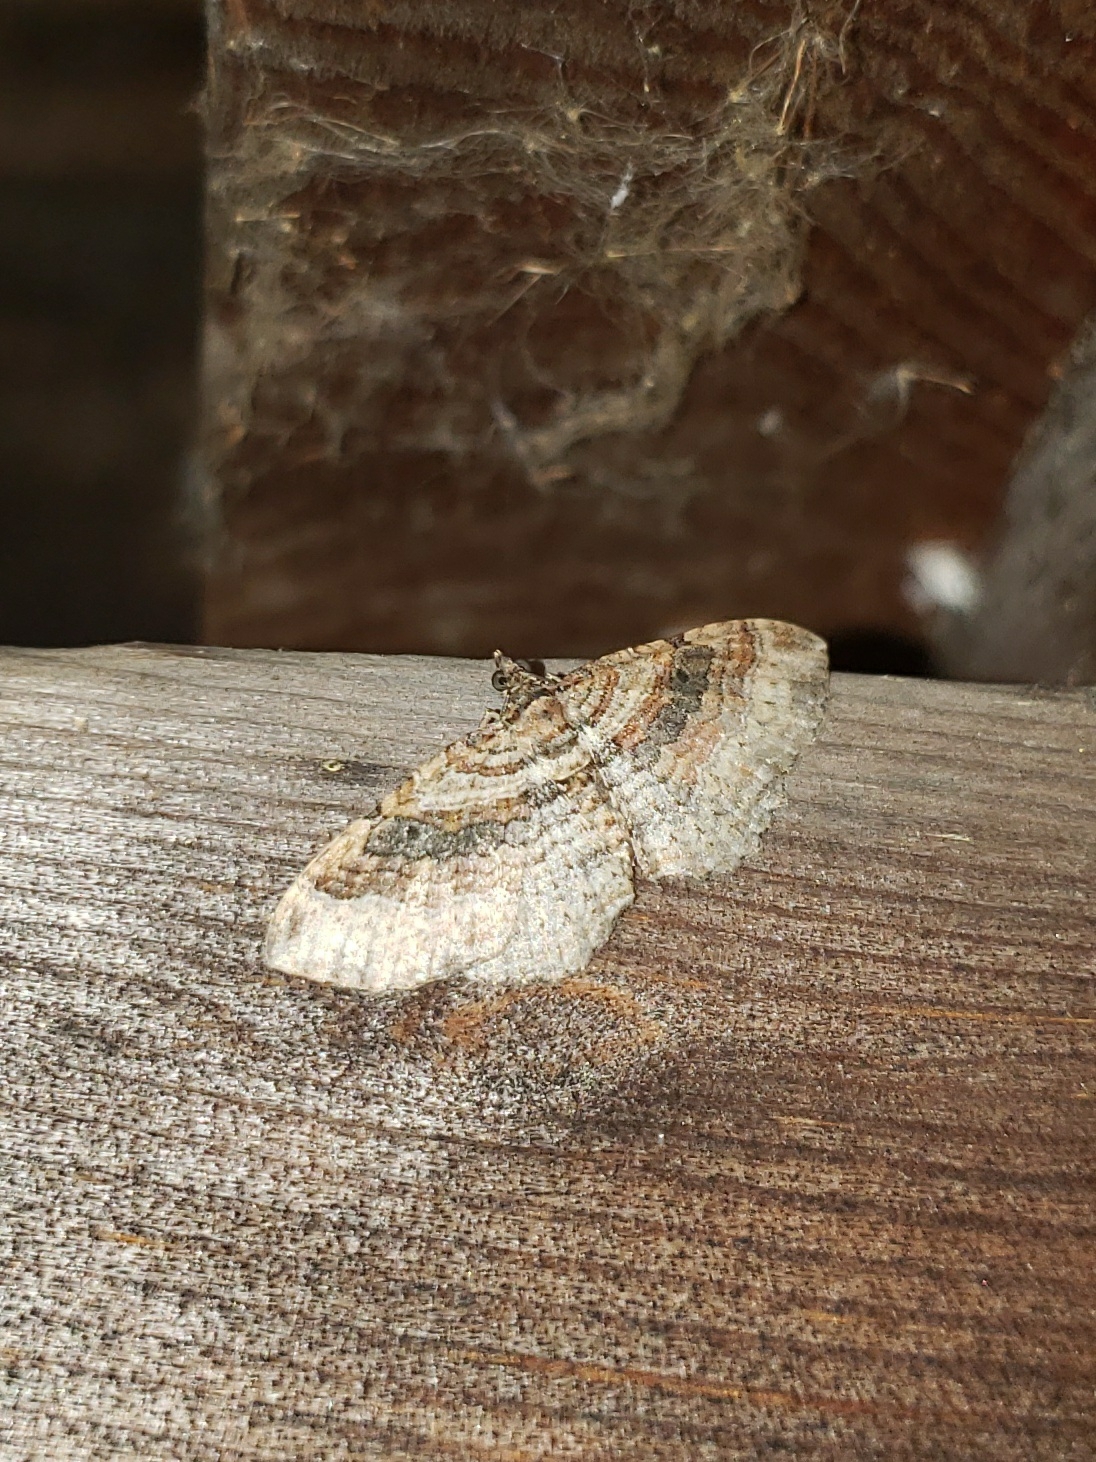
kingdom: Animalia
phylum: Arthropoda
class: Insecta
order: Lepidoptera
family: Geometridae
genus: Costaconvexa
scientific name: Costaconvexa centrostrigaria
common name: Bent-line carpet
